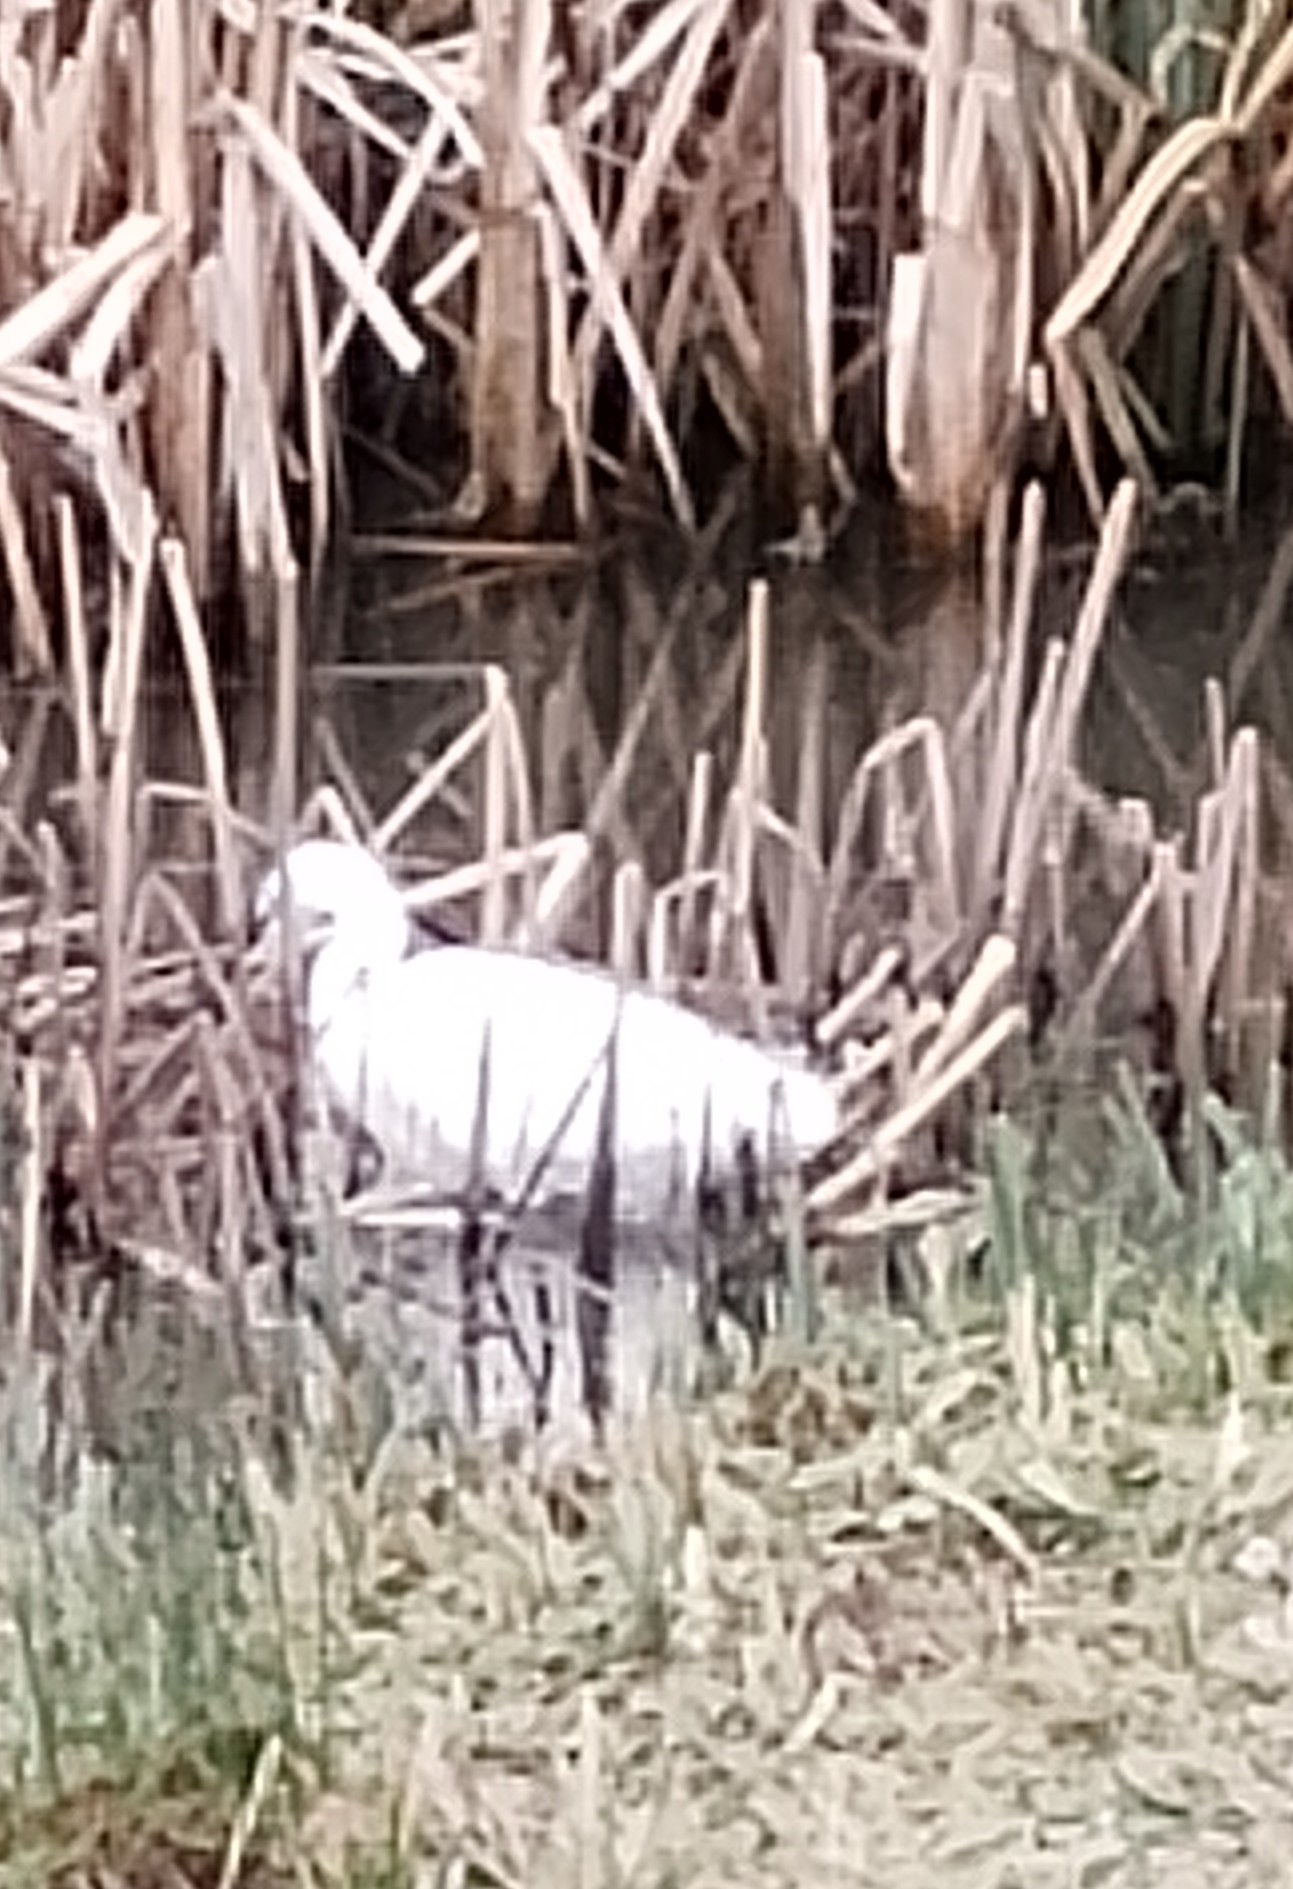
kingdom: Animalia
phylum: Chordata
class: Aves
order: Pelecaniformes
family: Ardeidae
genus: Egretta
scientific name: Egretta garzetta
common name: Little egret
